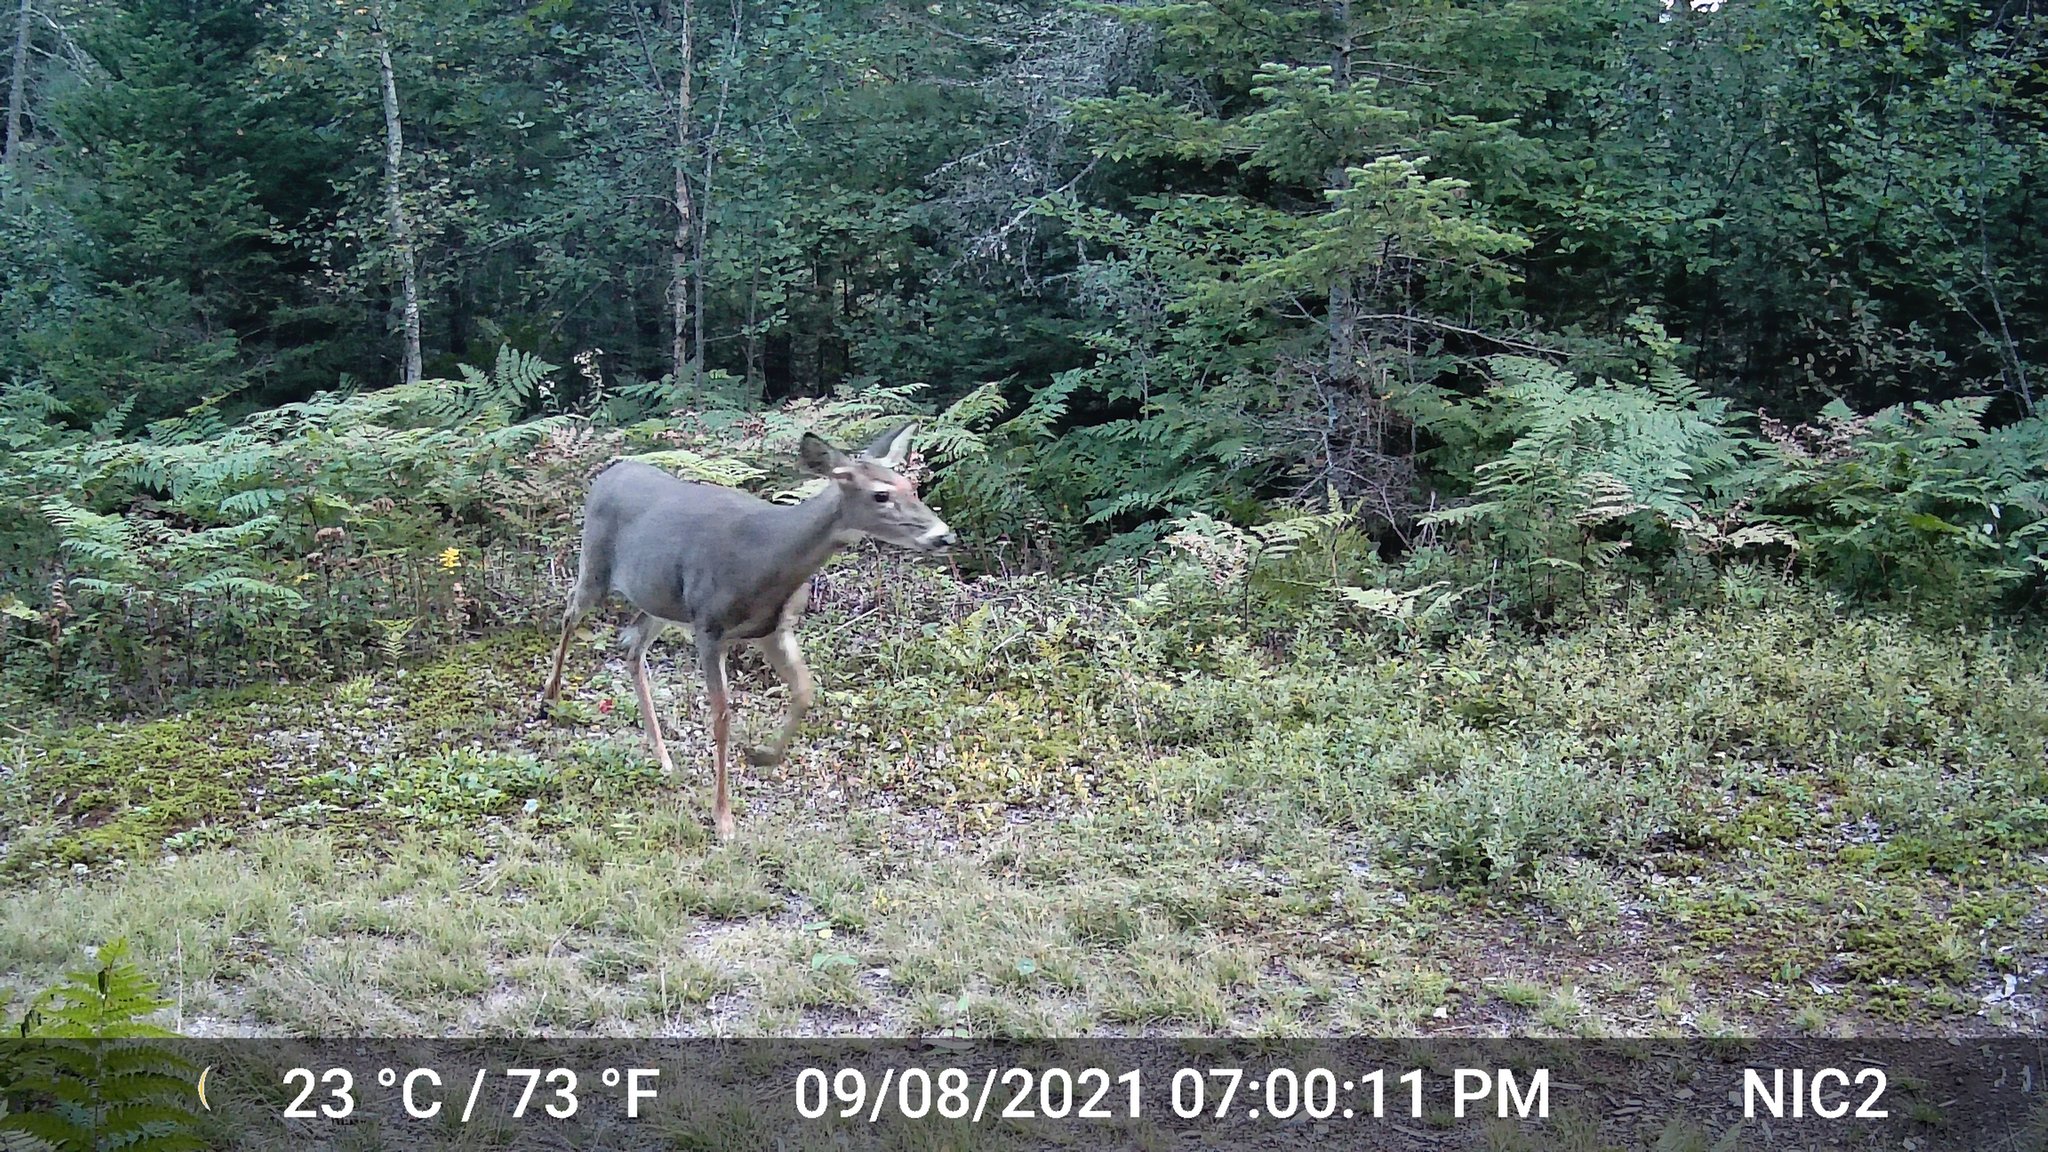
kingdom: Animalia
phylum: Chordata
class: Mammalia
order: Artiodactyla
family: Cervidae
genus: Odocoileus
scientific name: Odocoileus virginianus
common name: White-tailed deer
